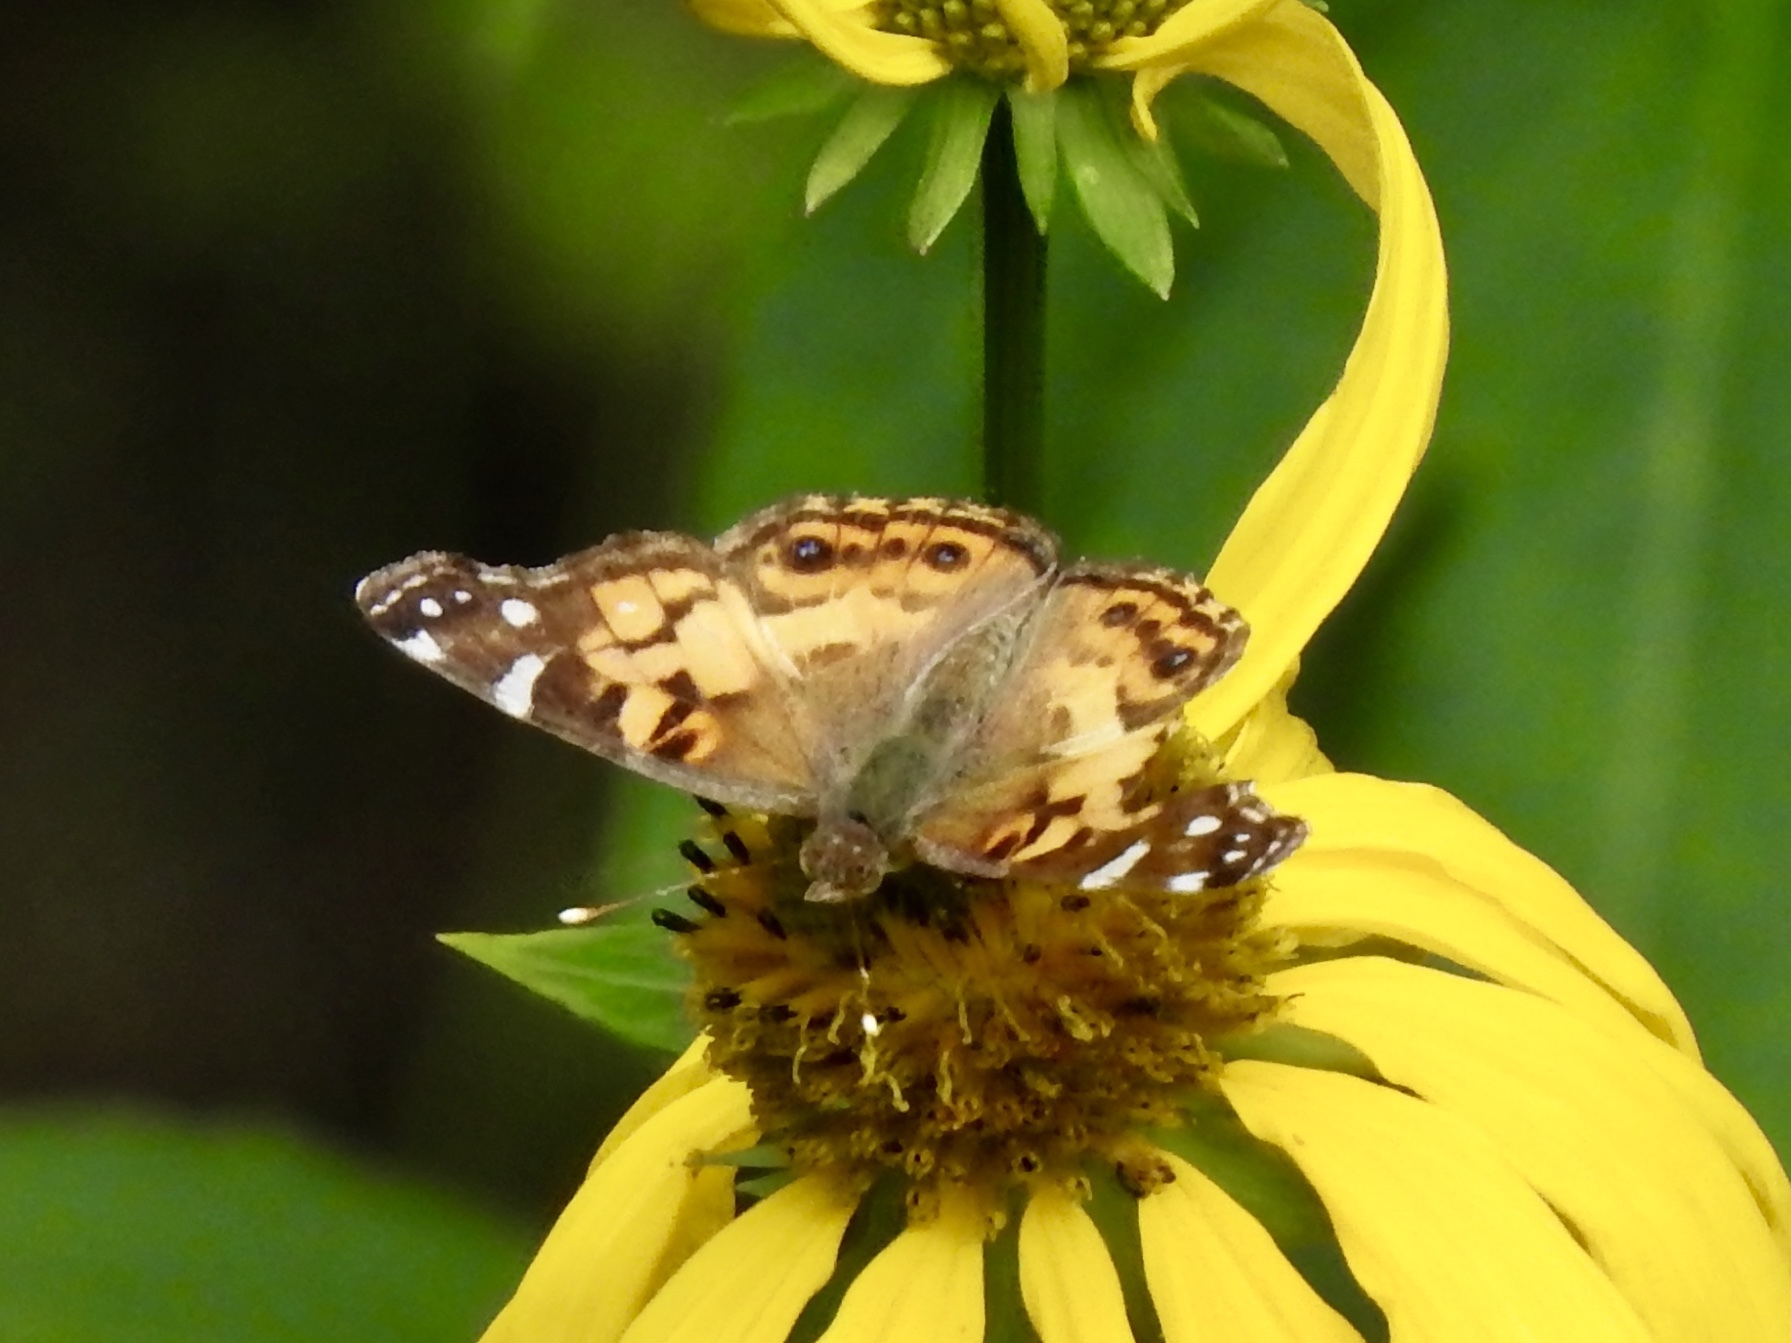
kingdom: Animalia
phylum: Arthropoda
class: Insecta
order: Lepidoptera
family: Nymphalidae
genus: Vanessa
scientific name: Vanessa virginiensis
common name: American lady
